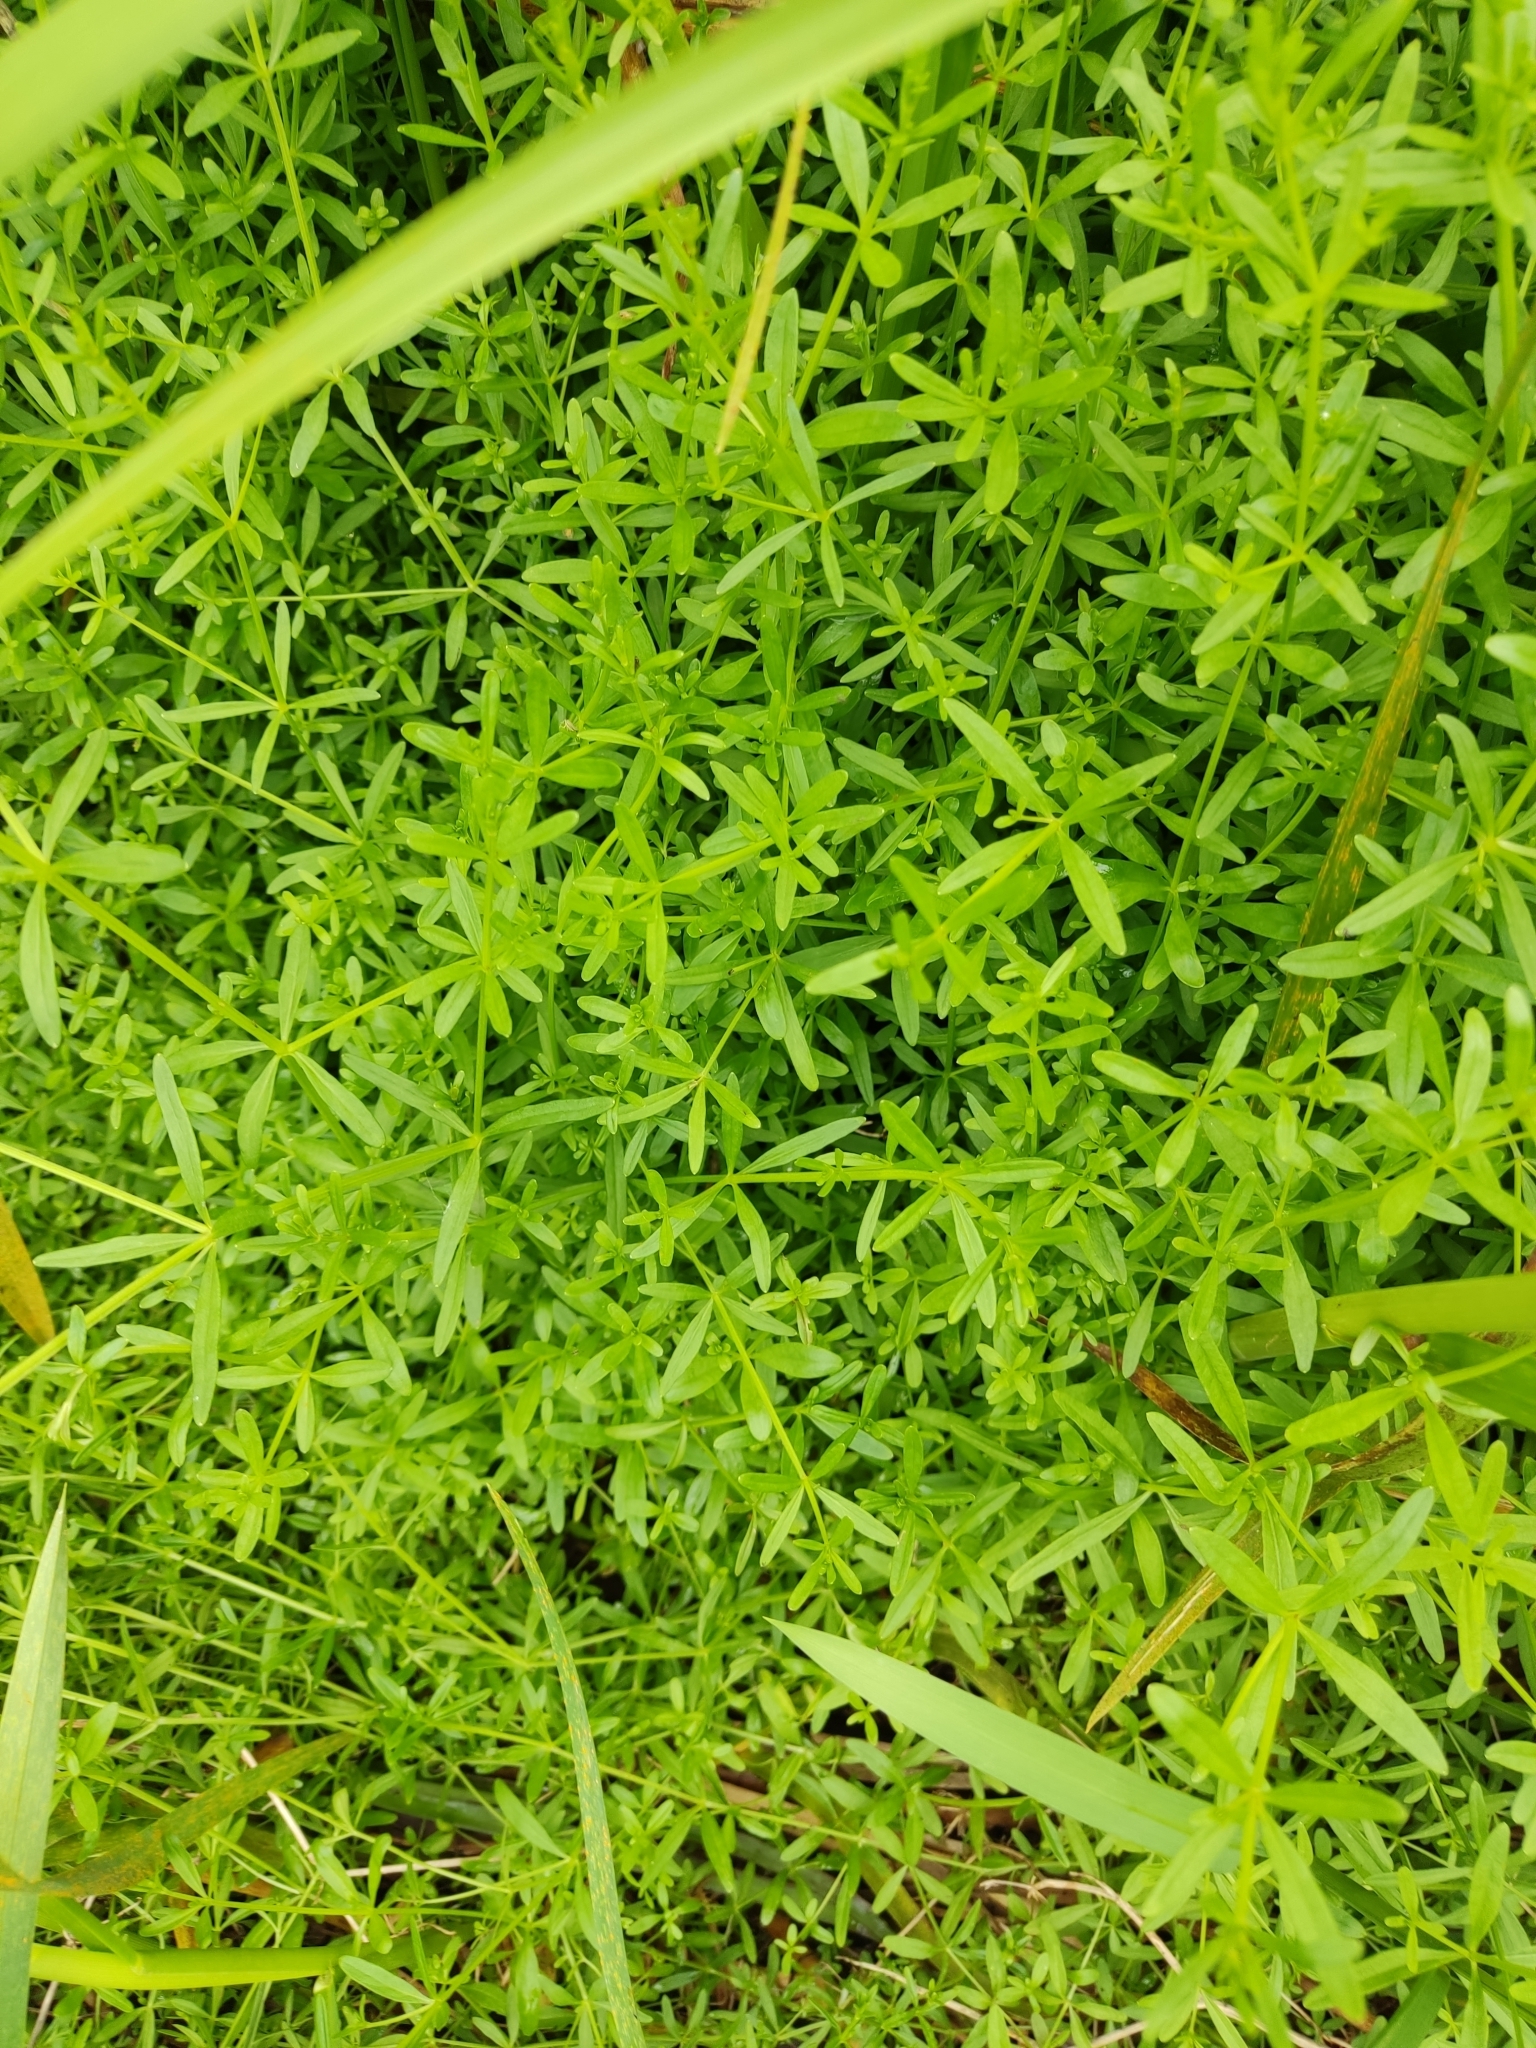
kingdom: Plantae
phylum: Tracheophyta
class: Magnoliopsida
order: Gentianales
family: Rubiaceae
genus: Galium
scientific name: Galium palustre
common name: Common marsh-bedstraw
